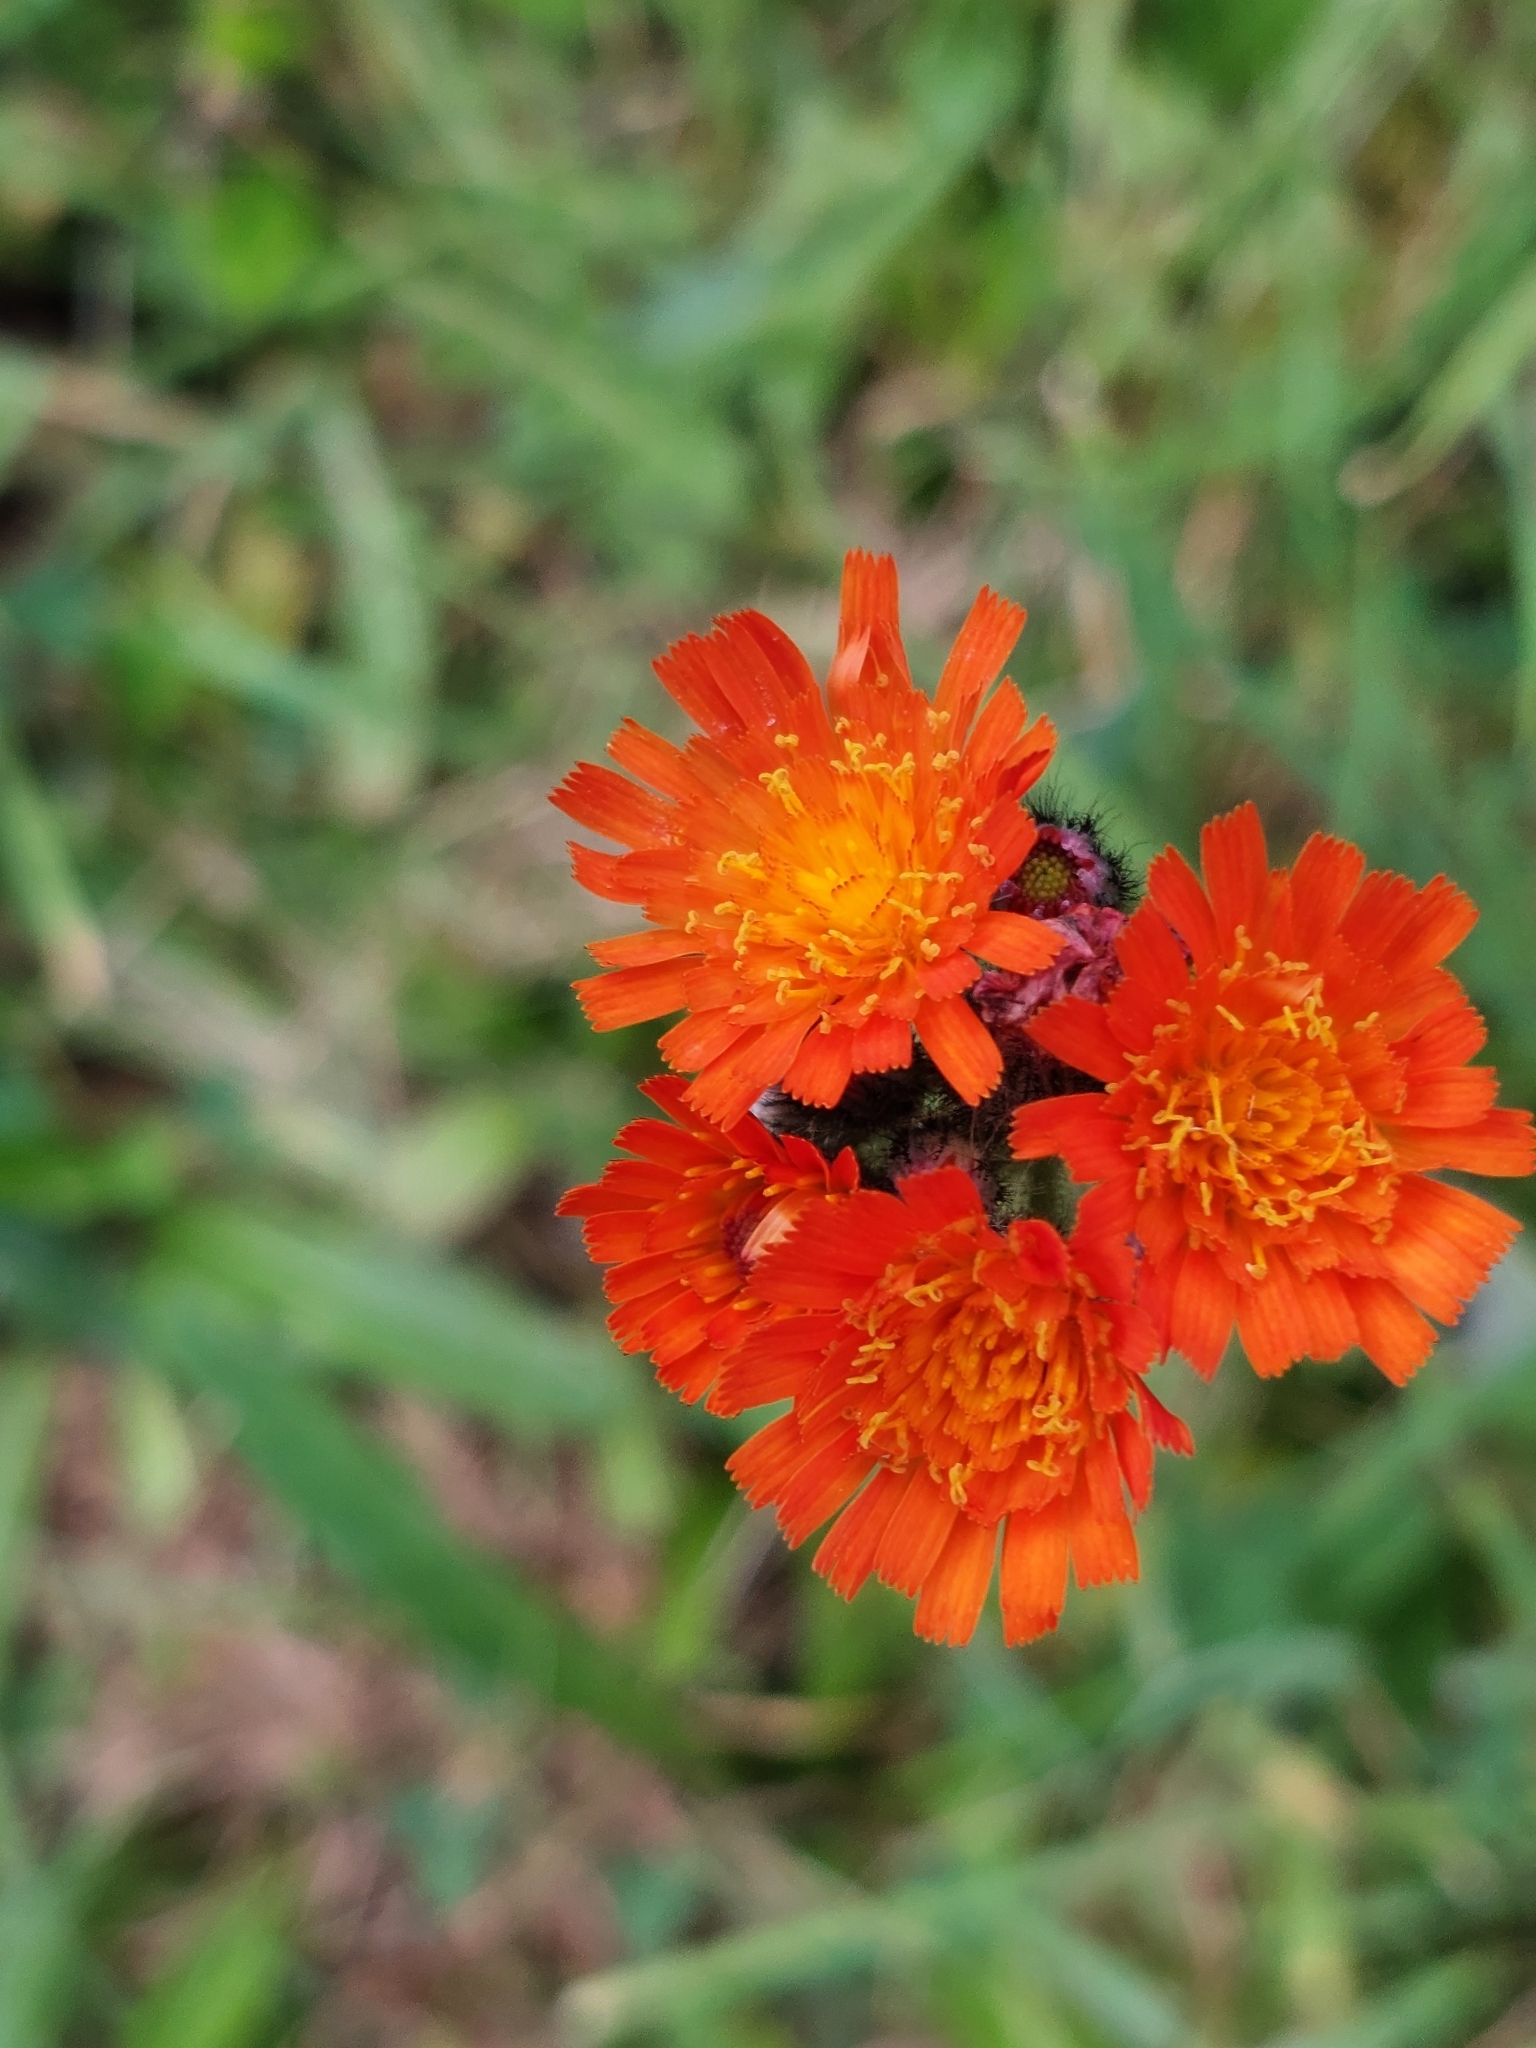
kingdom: Plantae
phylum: Tracheophyta
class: Magnoliopsida
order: Asterales
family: Asteraceae
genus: Pilosella
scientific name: Pilosella aurantiaca
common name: Fox-and-cubs
